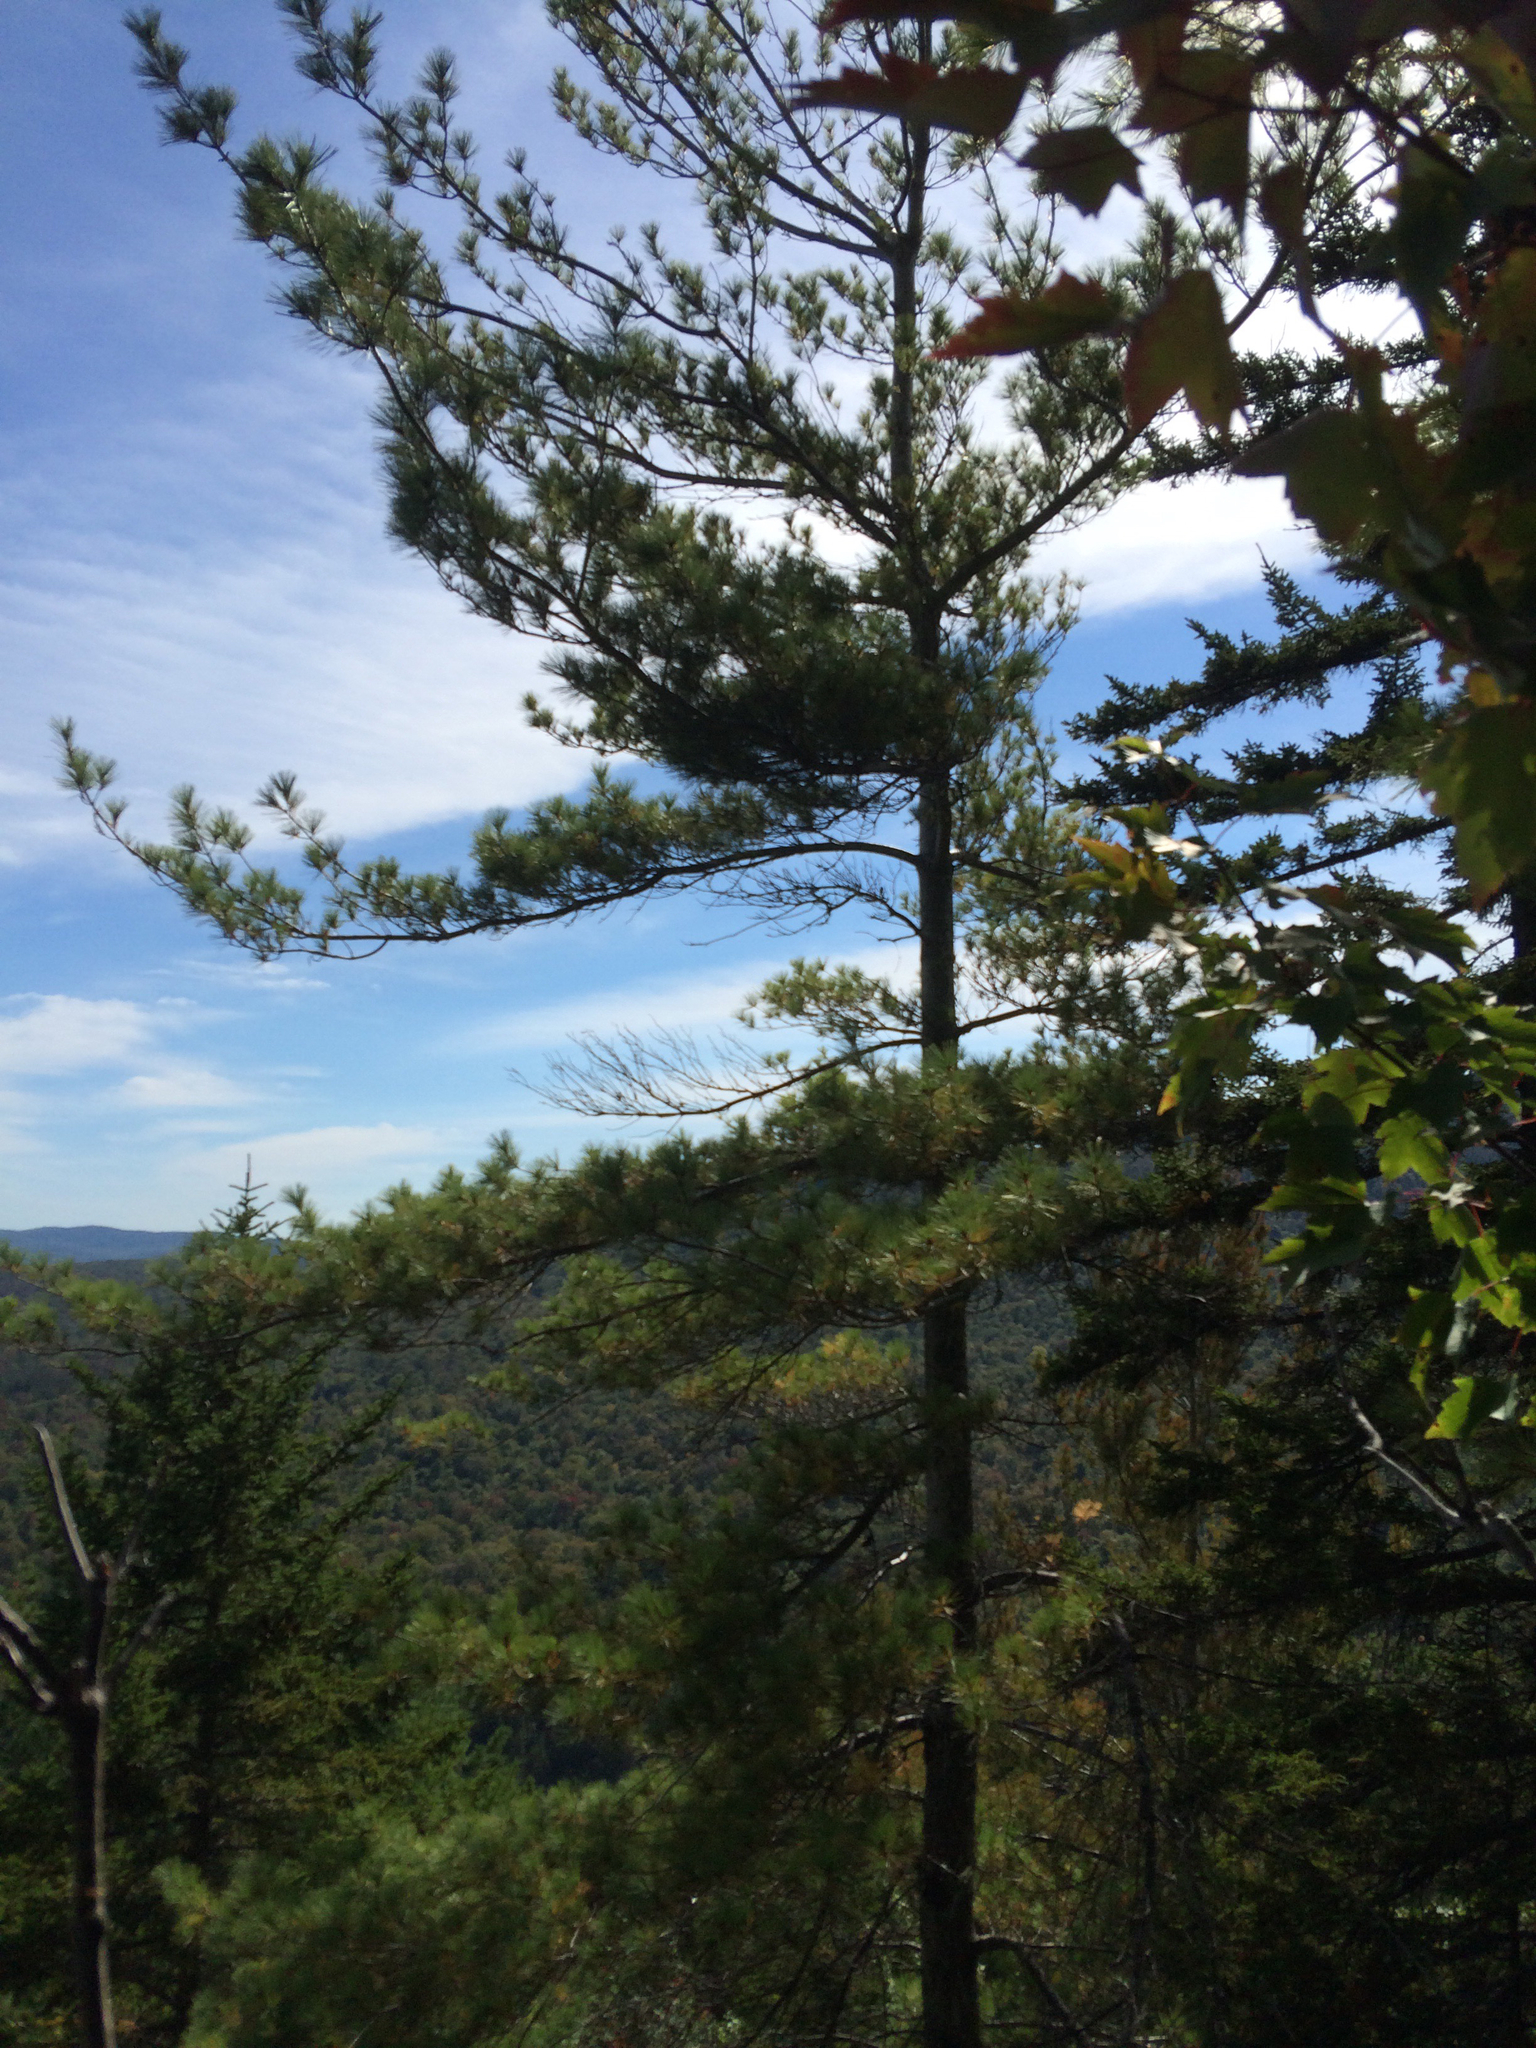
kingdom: Plantae
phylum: Tracheophyta
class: Pinopsida
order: Pinales
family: Pinaceae
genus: Pinus
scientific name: Pinus strobus
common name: Weymouth pine
